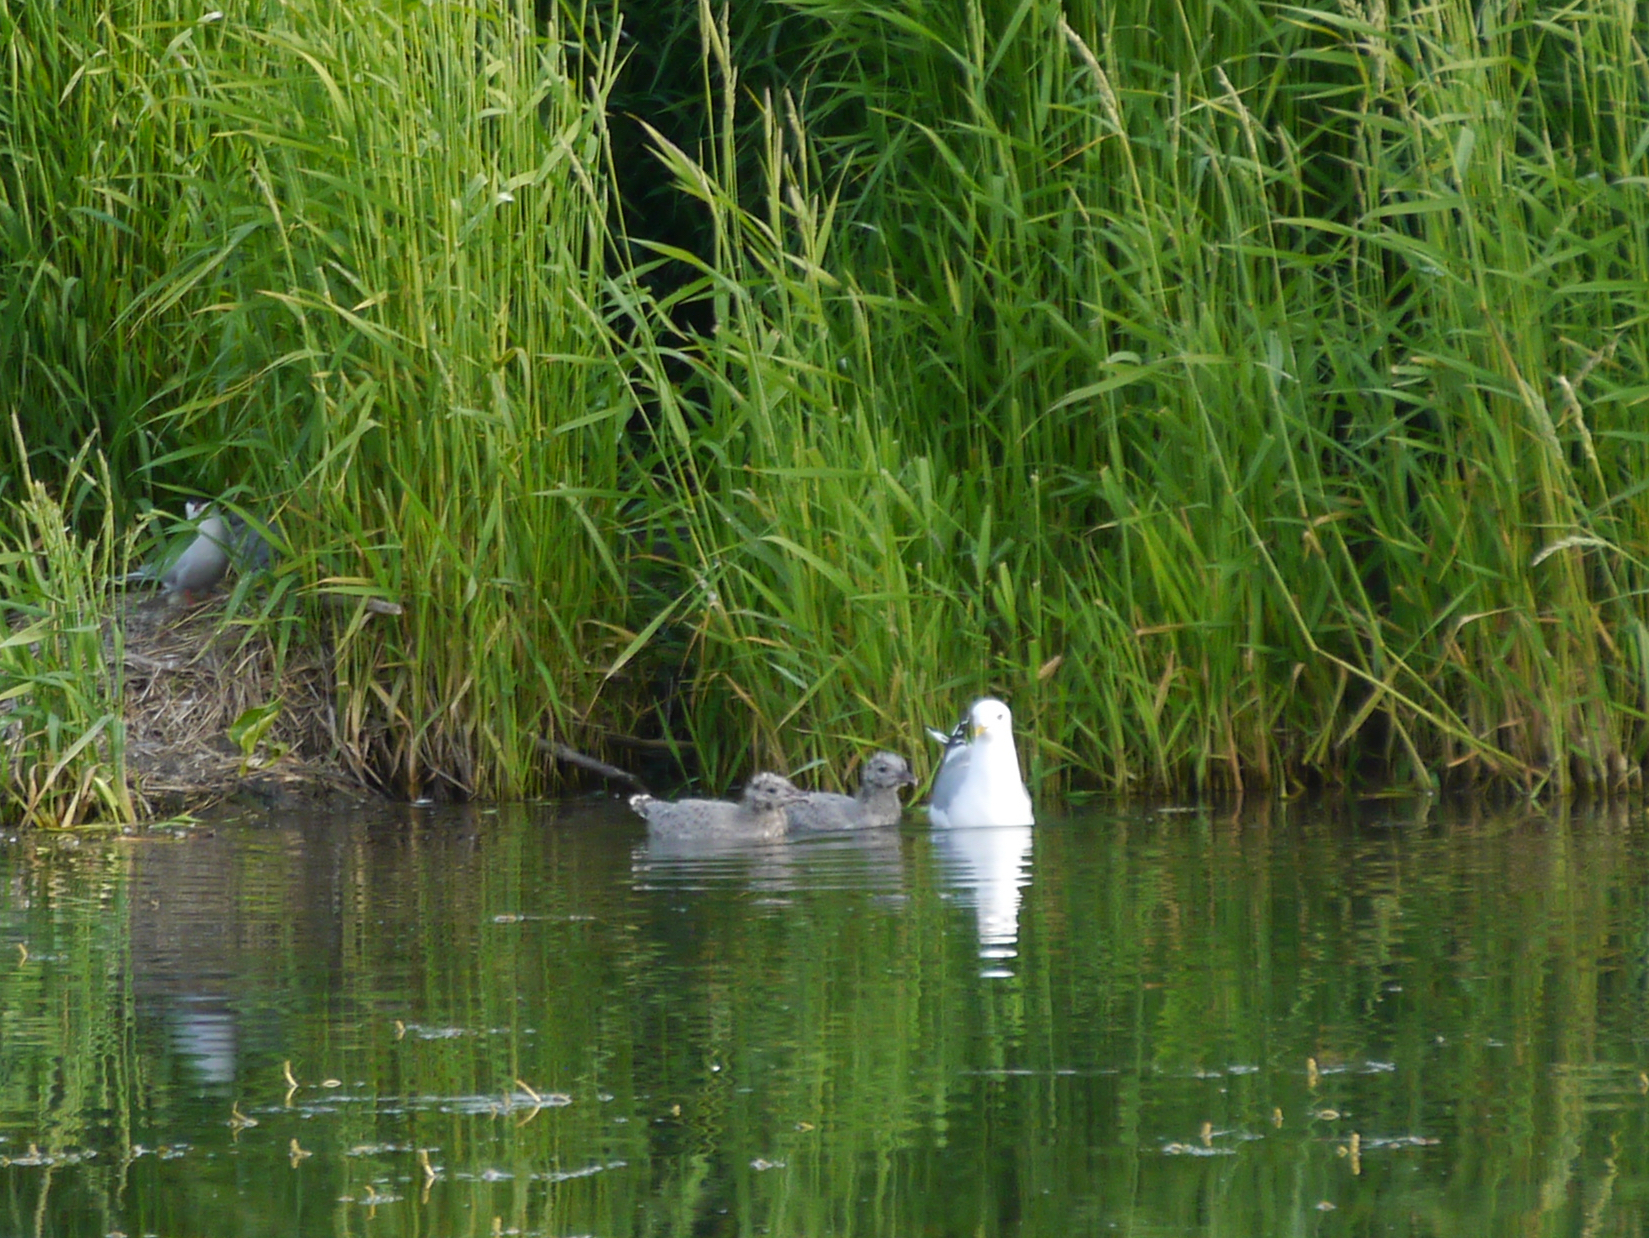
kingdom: Animalia
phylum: Chordata
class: Aves
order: Charadriiformes
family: Laridae
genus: Larus
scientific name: Larus brachyrhynchus
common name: Short-billed gull
